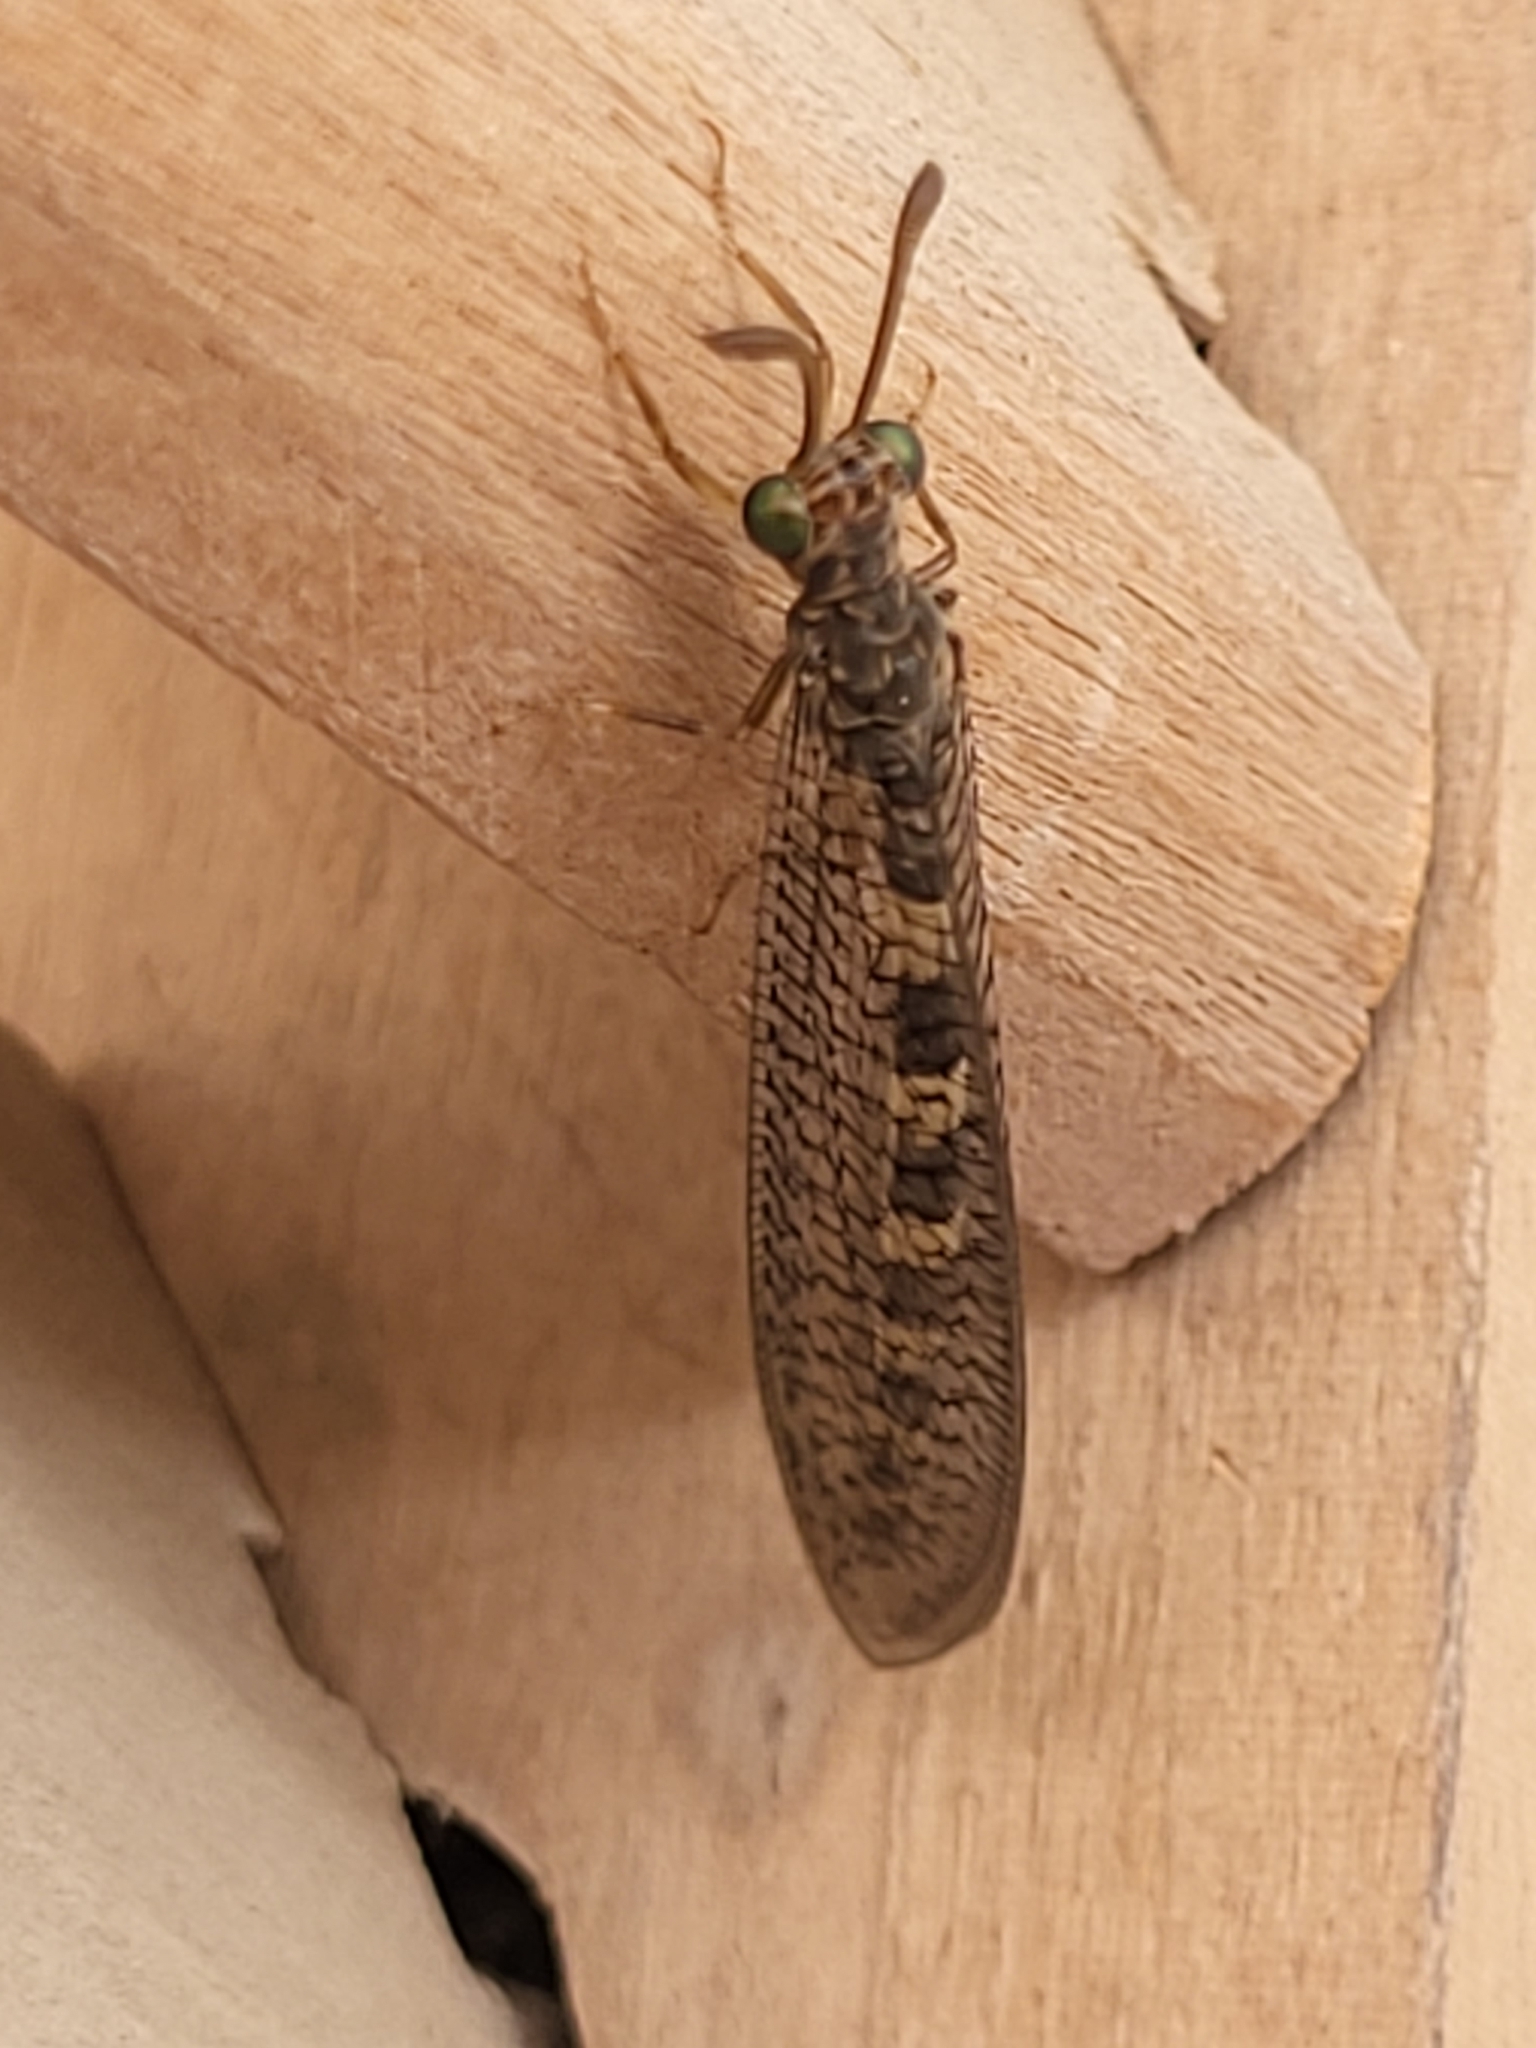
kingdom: Animalia
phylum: Arthropoda
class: Insecta
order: Neuroptera
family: Myrmeleontidae
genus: Myrmeleon
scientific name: Myrmeleon alternans
